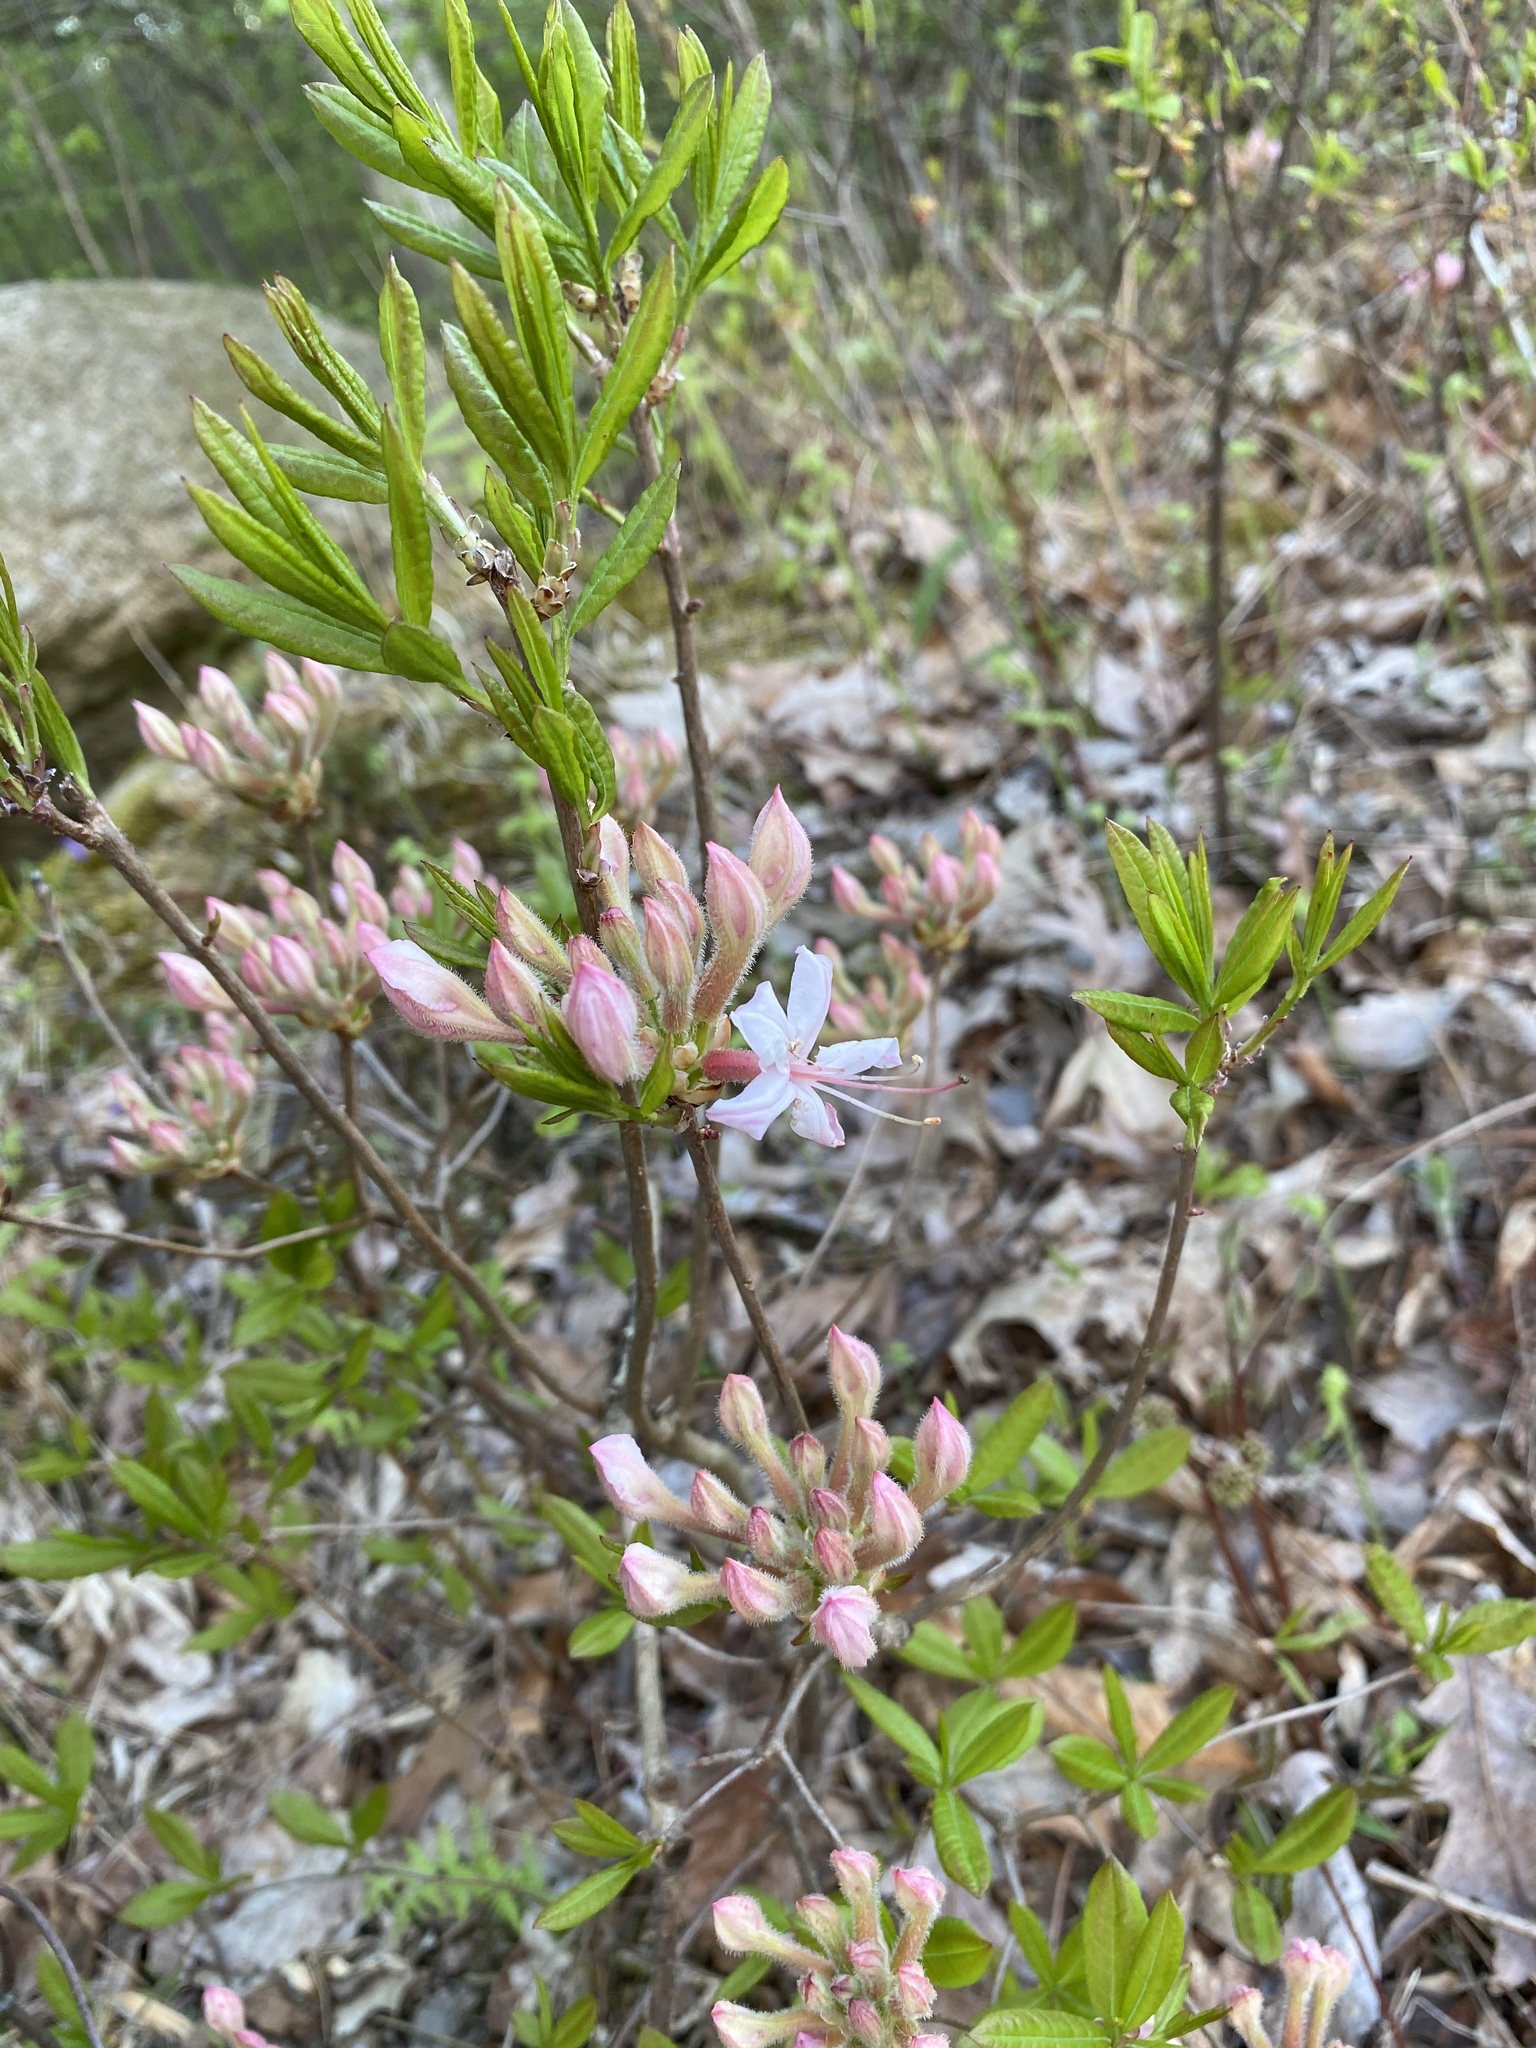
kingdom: Plantae
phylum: Tracheophyta
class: Magnoliopsida
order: Ericales
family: Ericaceae
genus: Rhododendron
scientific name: Rhododendron periclymenoides
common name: Election-pink
